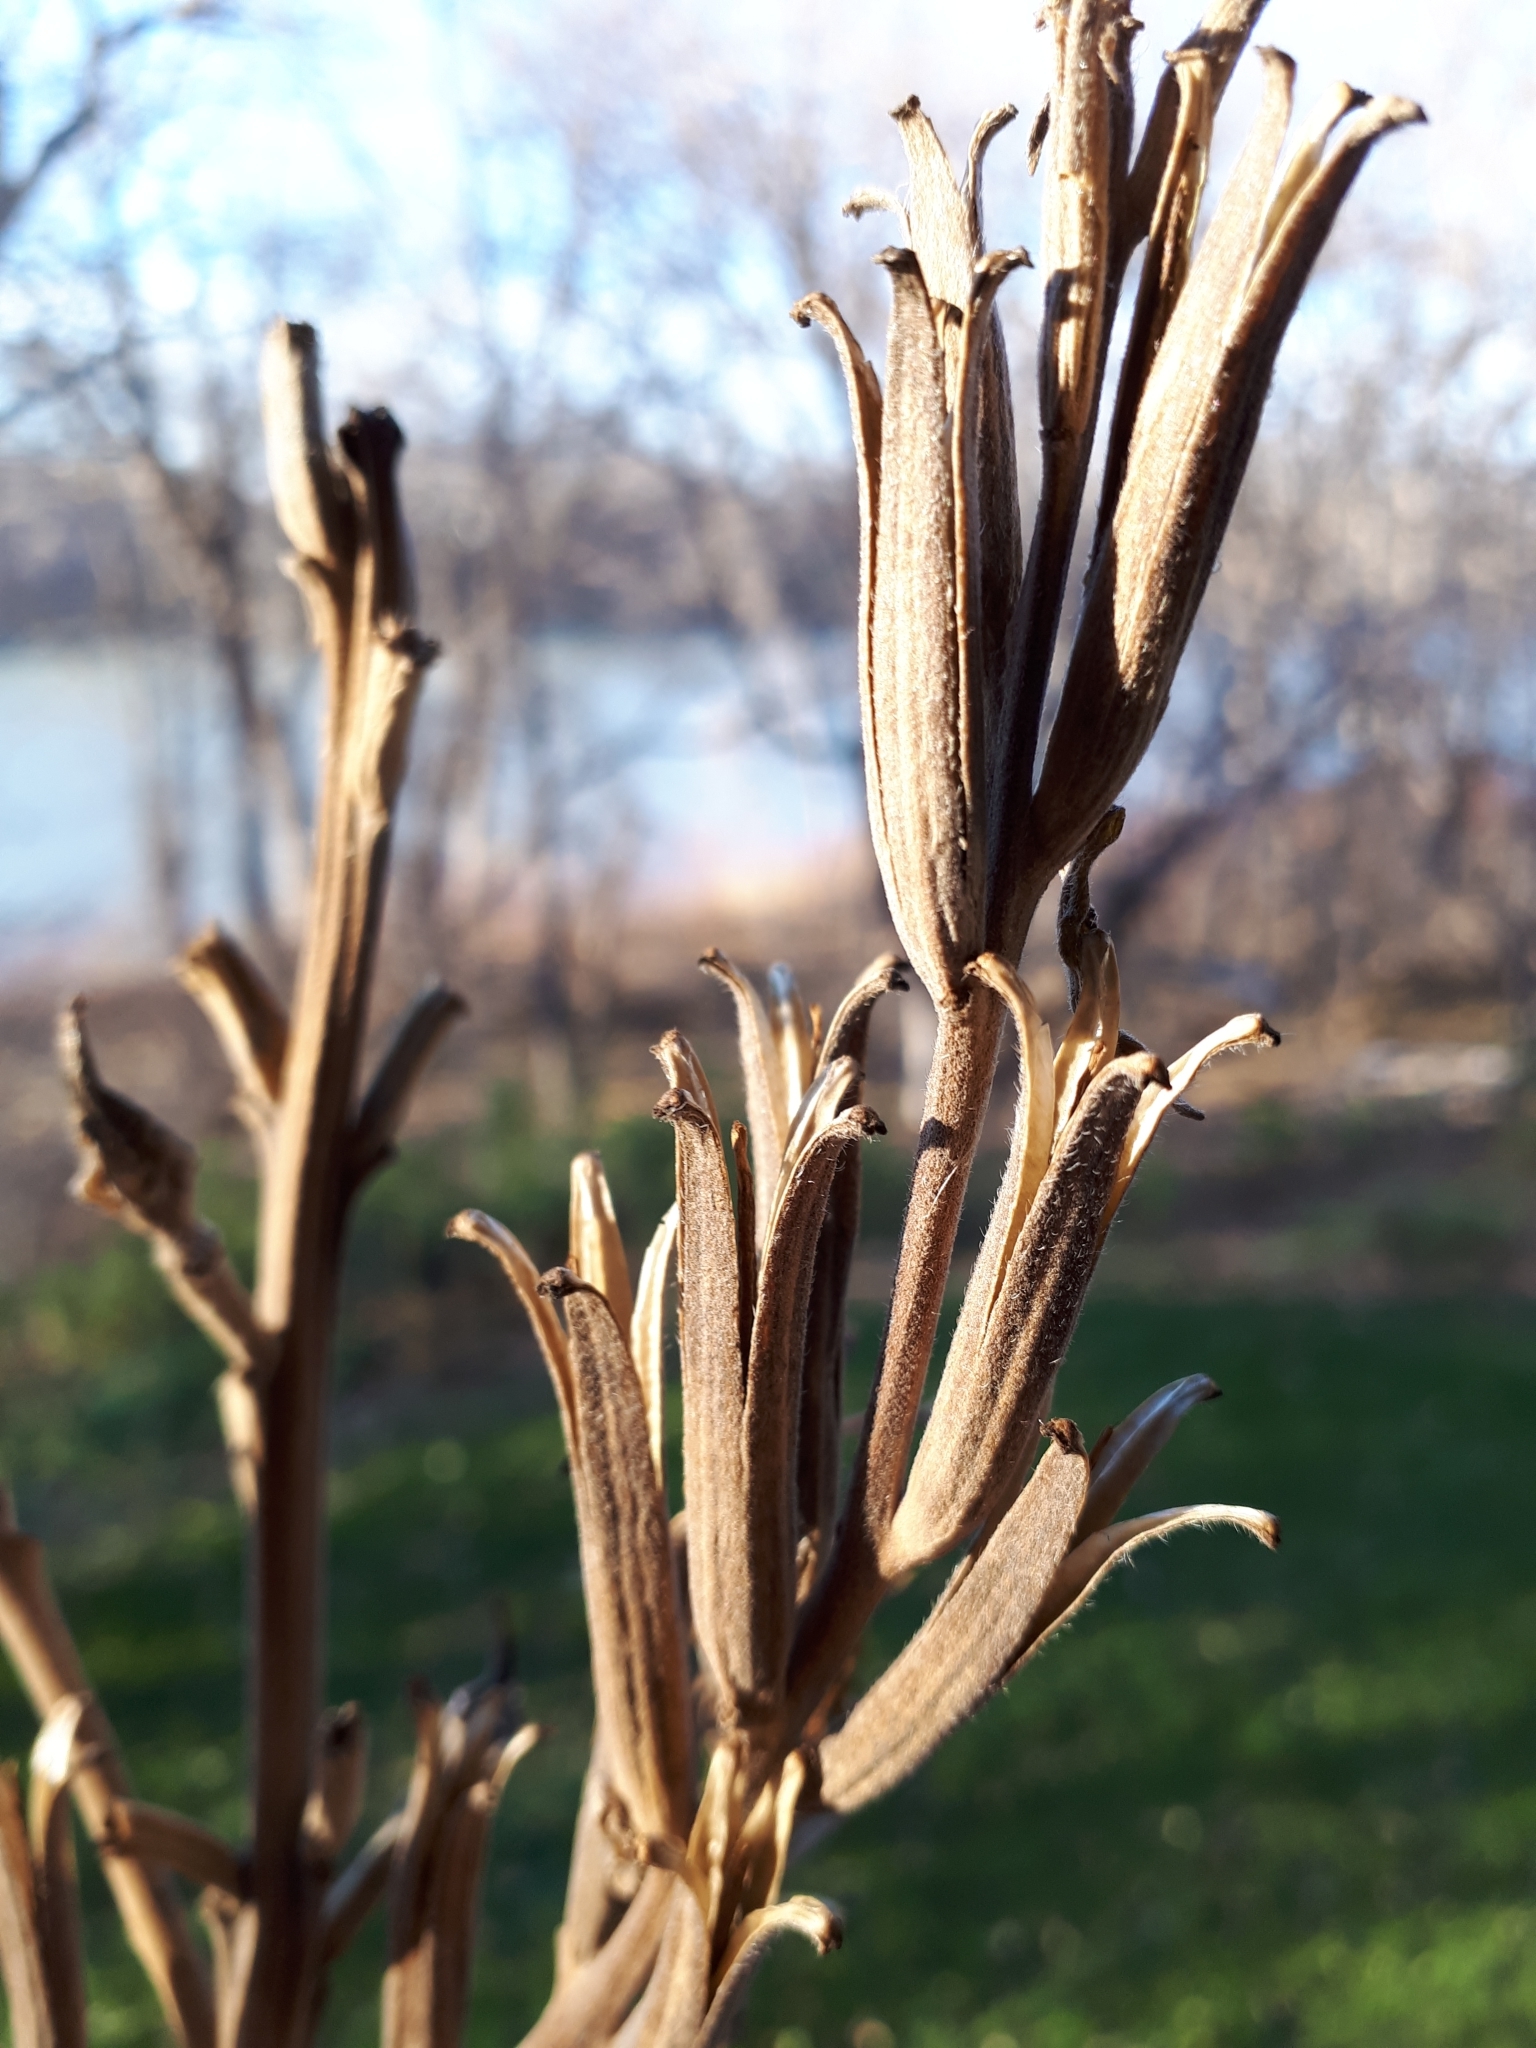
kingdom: Plantae
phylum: Tracheophyta
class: Magnoliopsida
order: Myrtales
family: Onagraceae
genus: Oenothera
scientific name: Oenothera biennis
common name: Common evening-primrose
